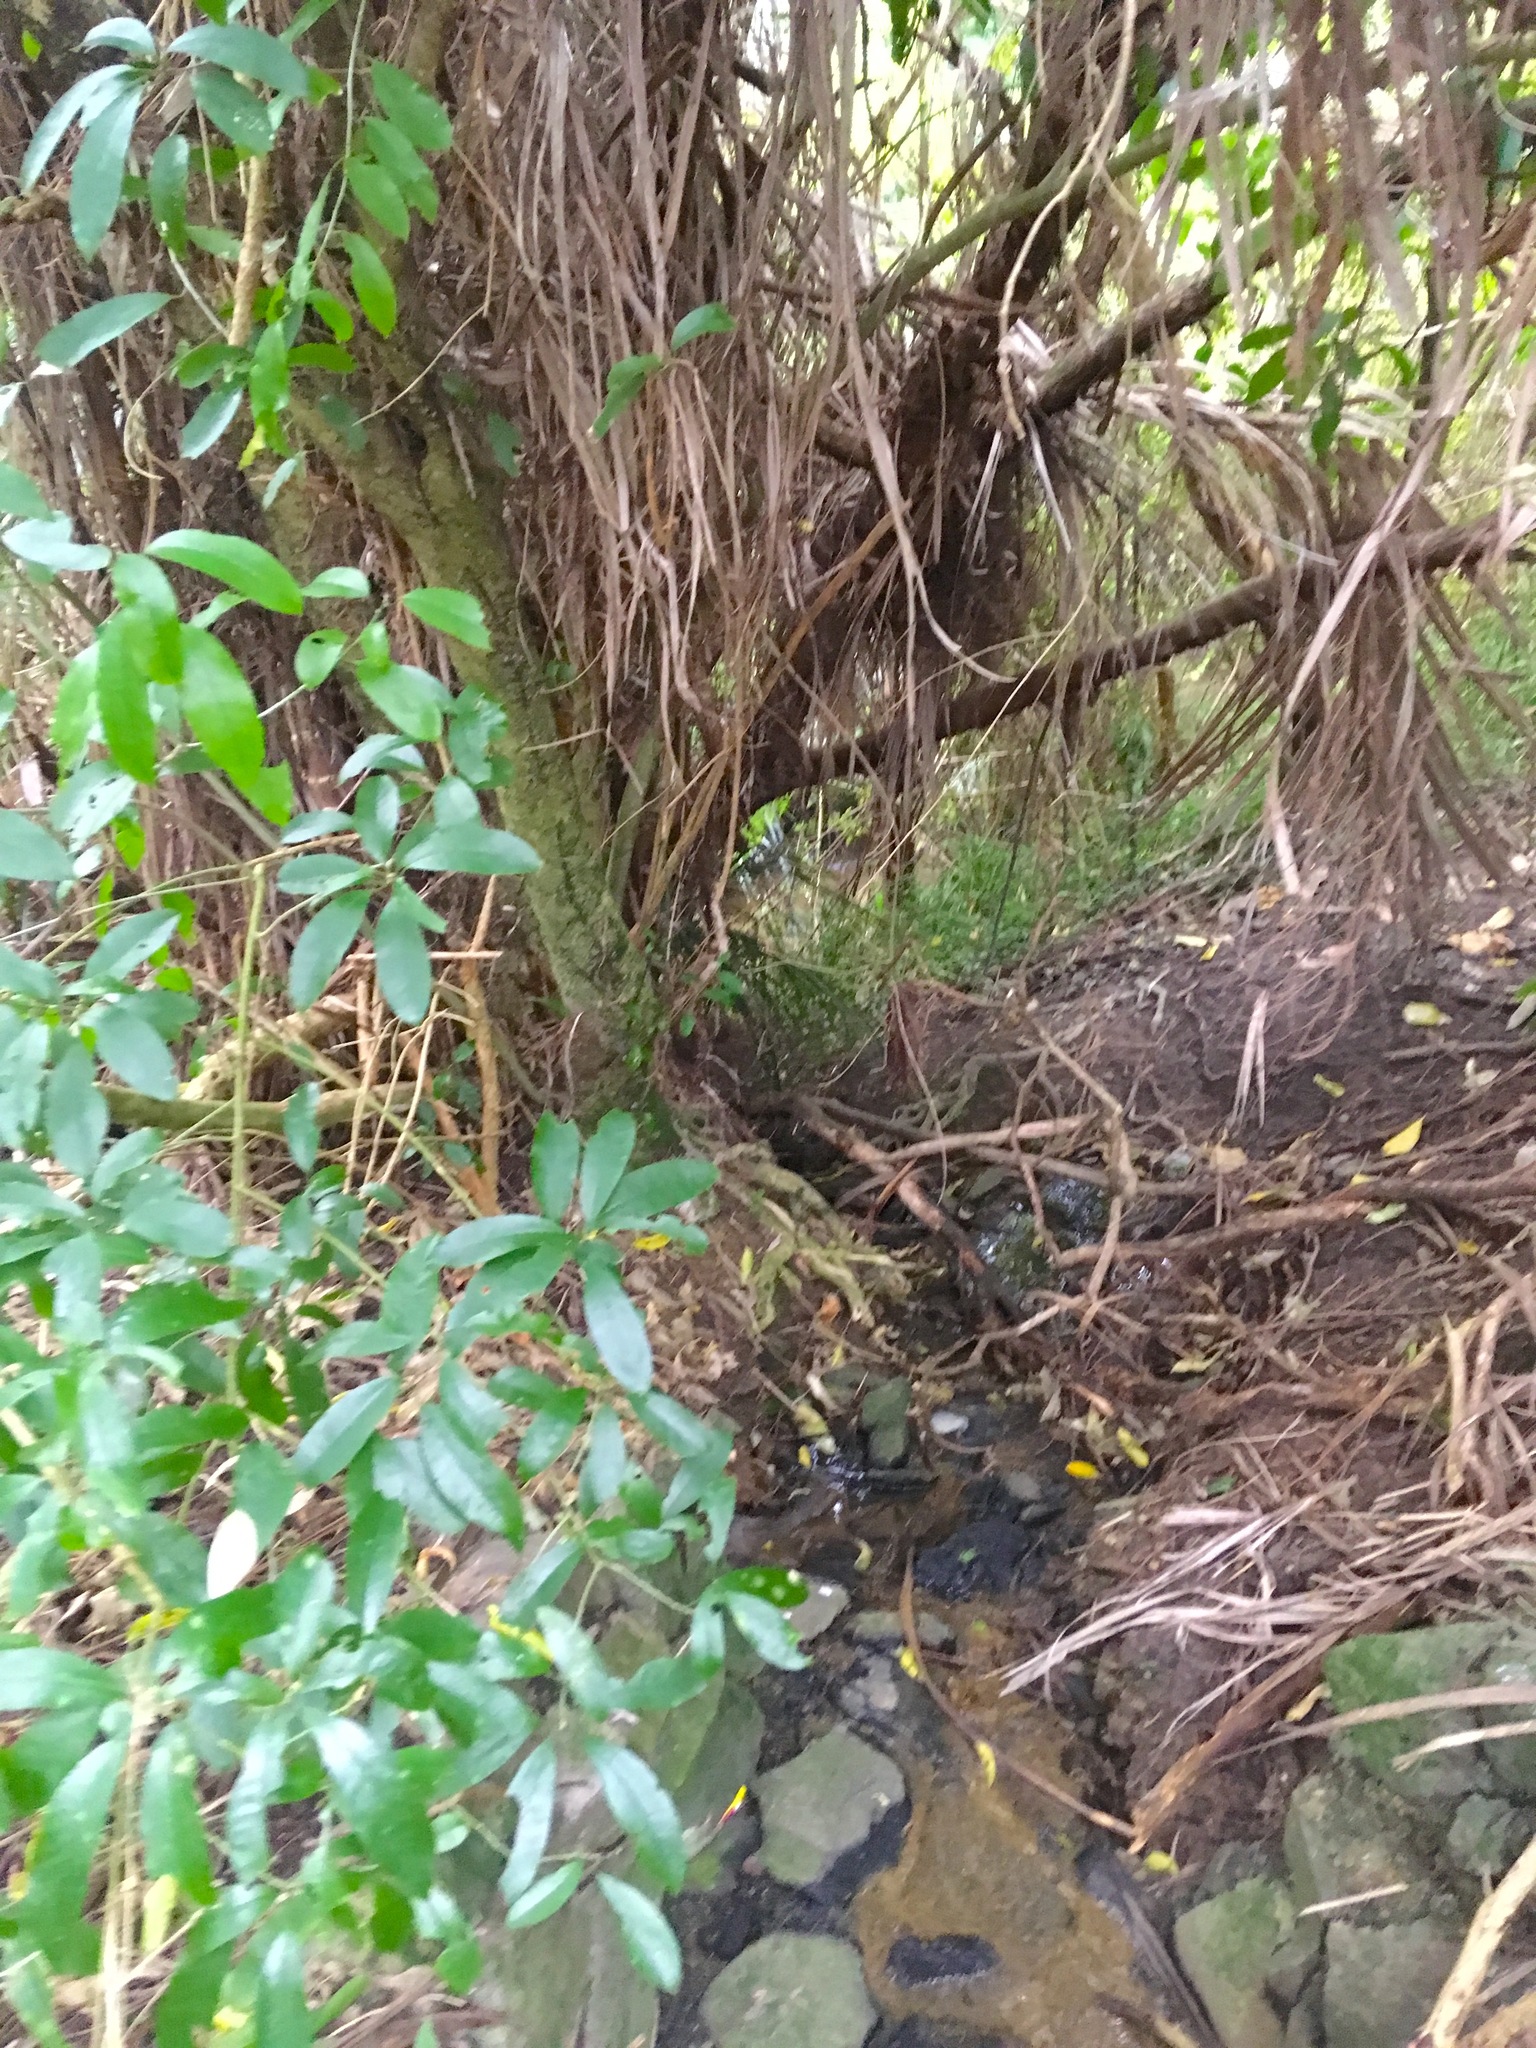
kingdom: Plantae
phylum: Tracheophyta
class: Magnoliopsida
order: Malpighiales
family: Violaceae
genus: Melicytus
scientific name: Melicytus ramiflorus
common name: Mahoe
